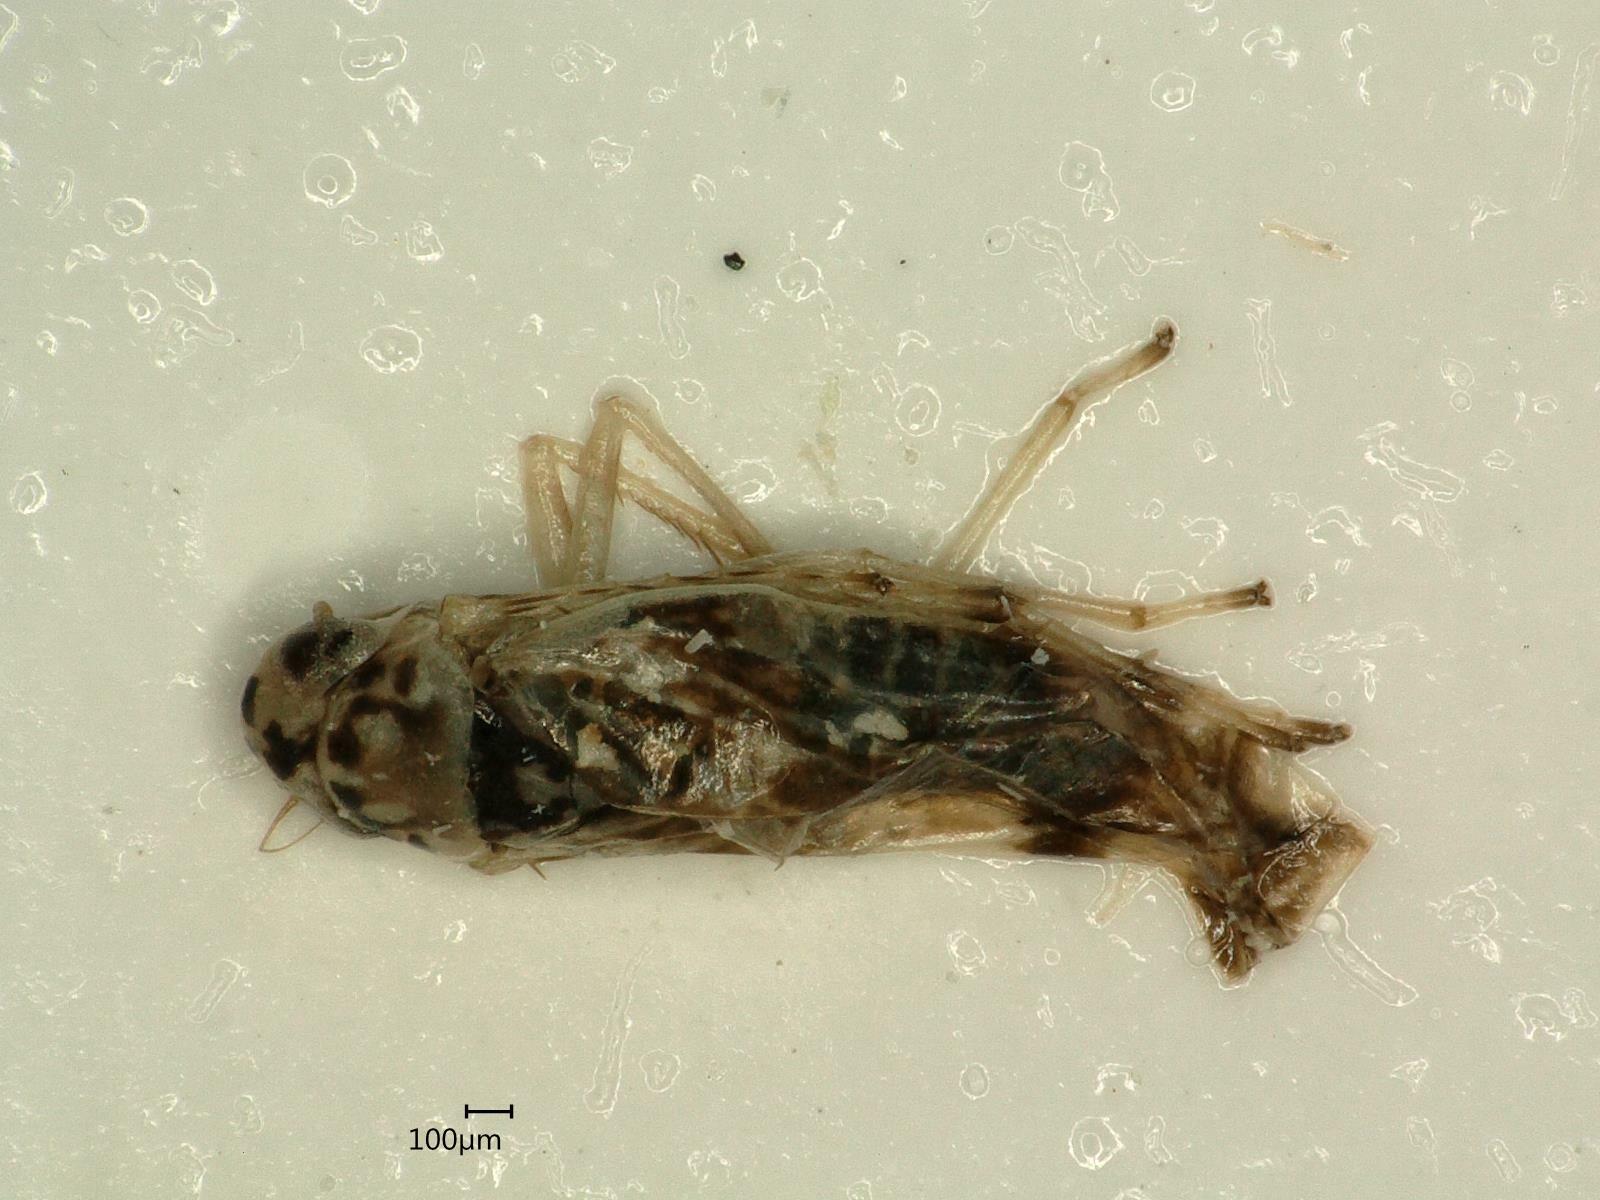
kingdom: Animalia
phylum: Arthropoda
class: Insecta
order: Hemiptera
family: Cicadellidae
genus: Eupteryx
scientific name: Eupteryx florida
